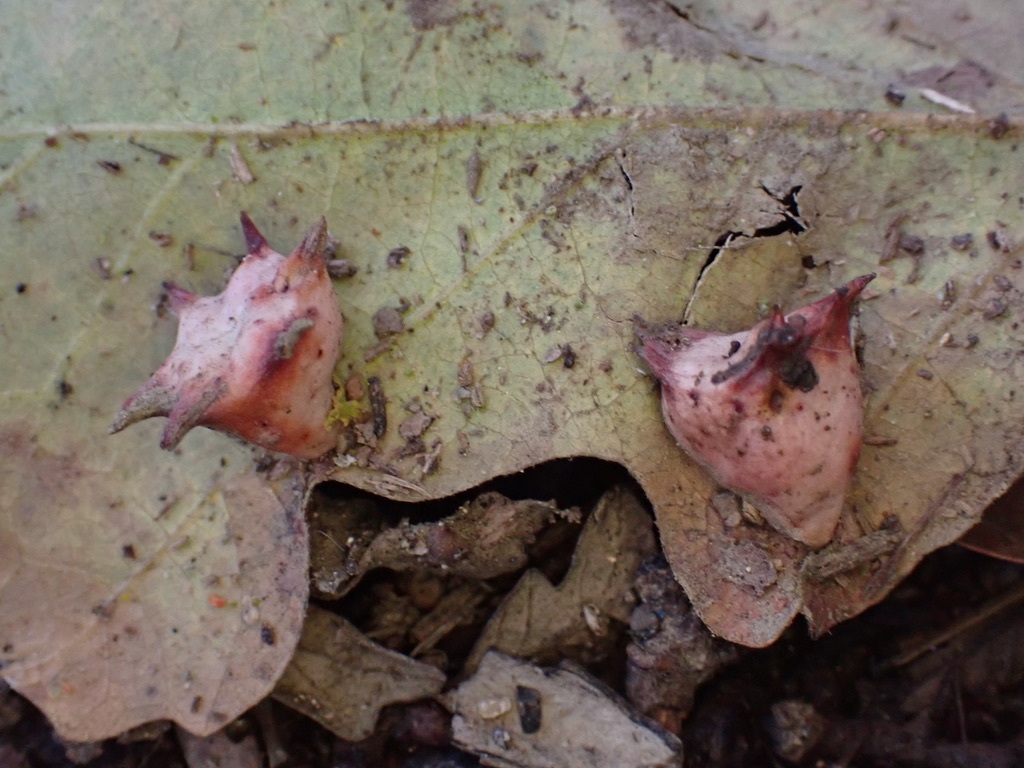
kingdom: Animalia
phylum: Arthropoda
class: Insecta
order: Hymenoptera
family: Cynipidae
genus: Cynips
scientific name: Cynips douglasi
